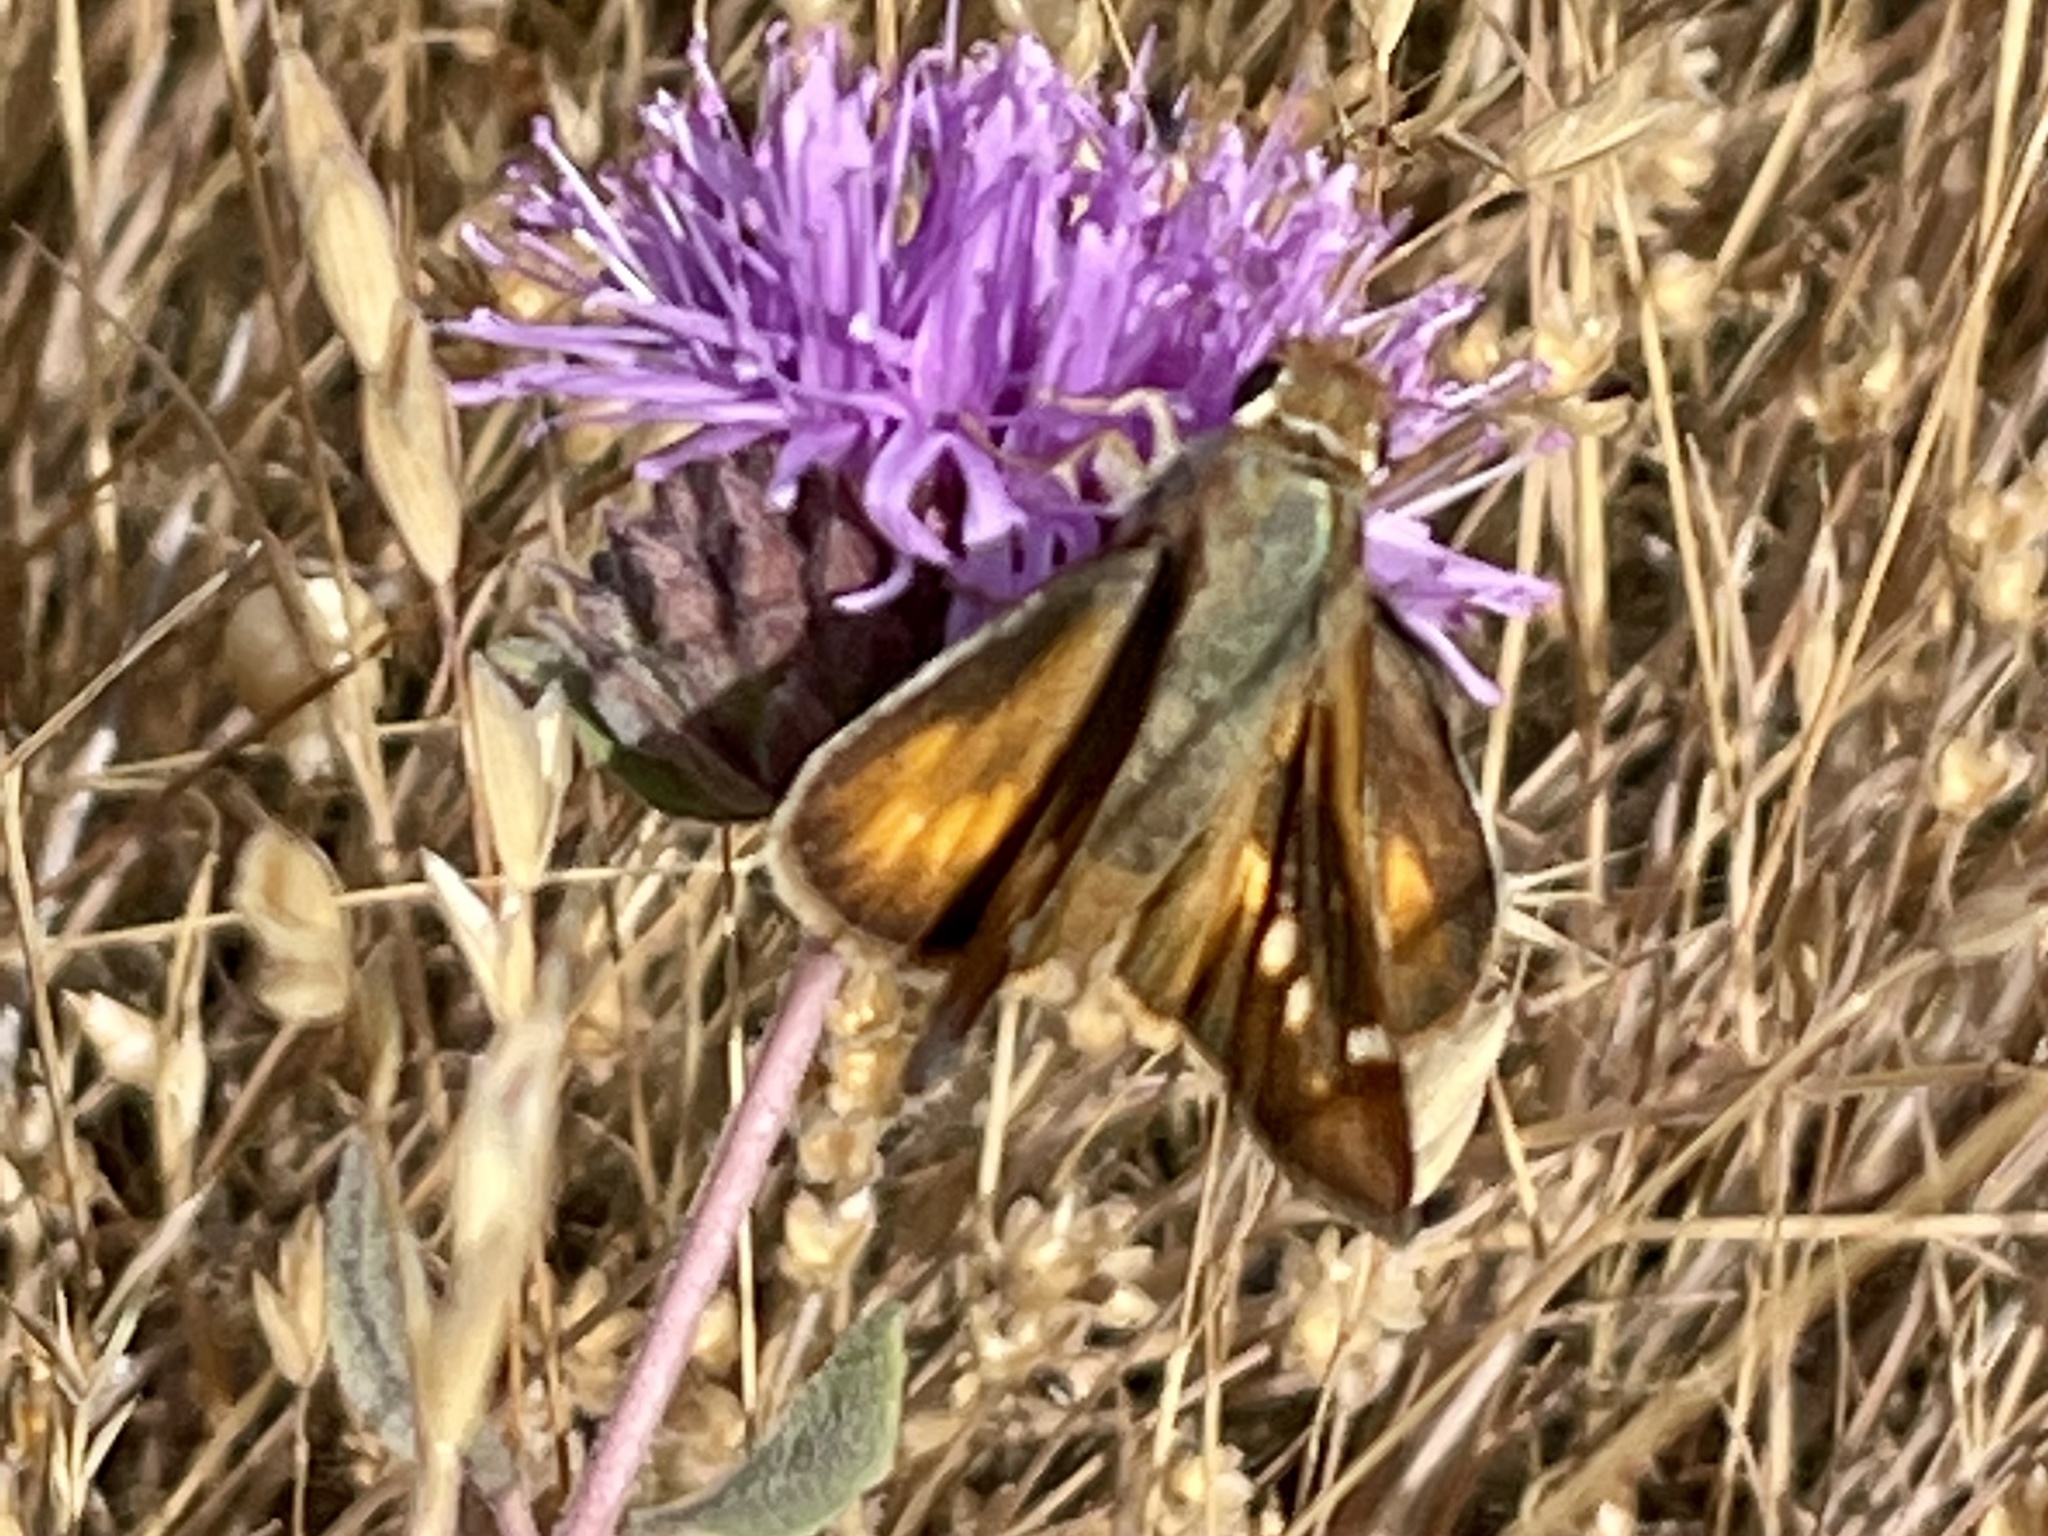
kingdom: Animalia
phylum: Arthropoda
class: Insecta
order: Lepidoptera
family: Hesperiidae
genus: Lon
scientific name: Lon melane
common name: Umber skipper
